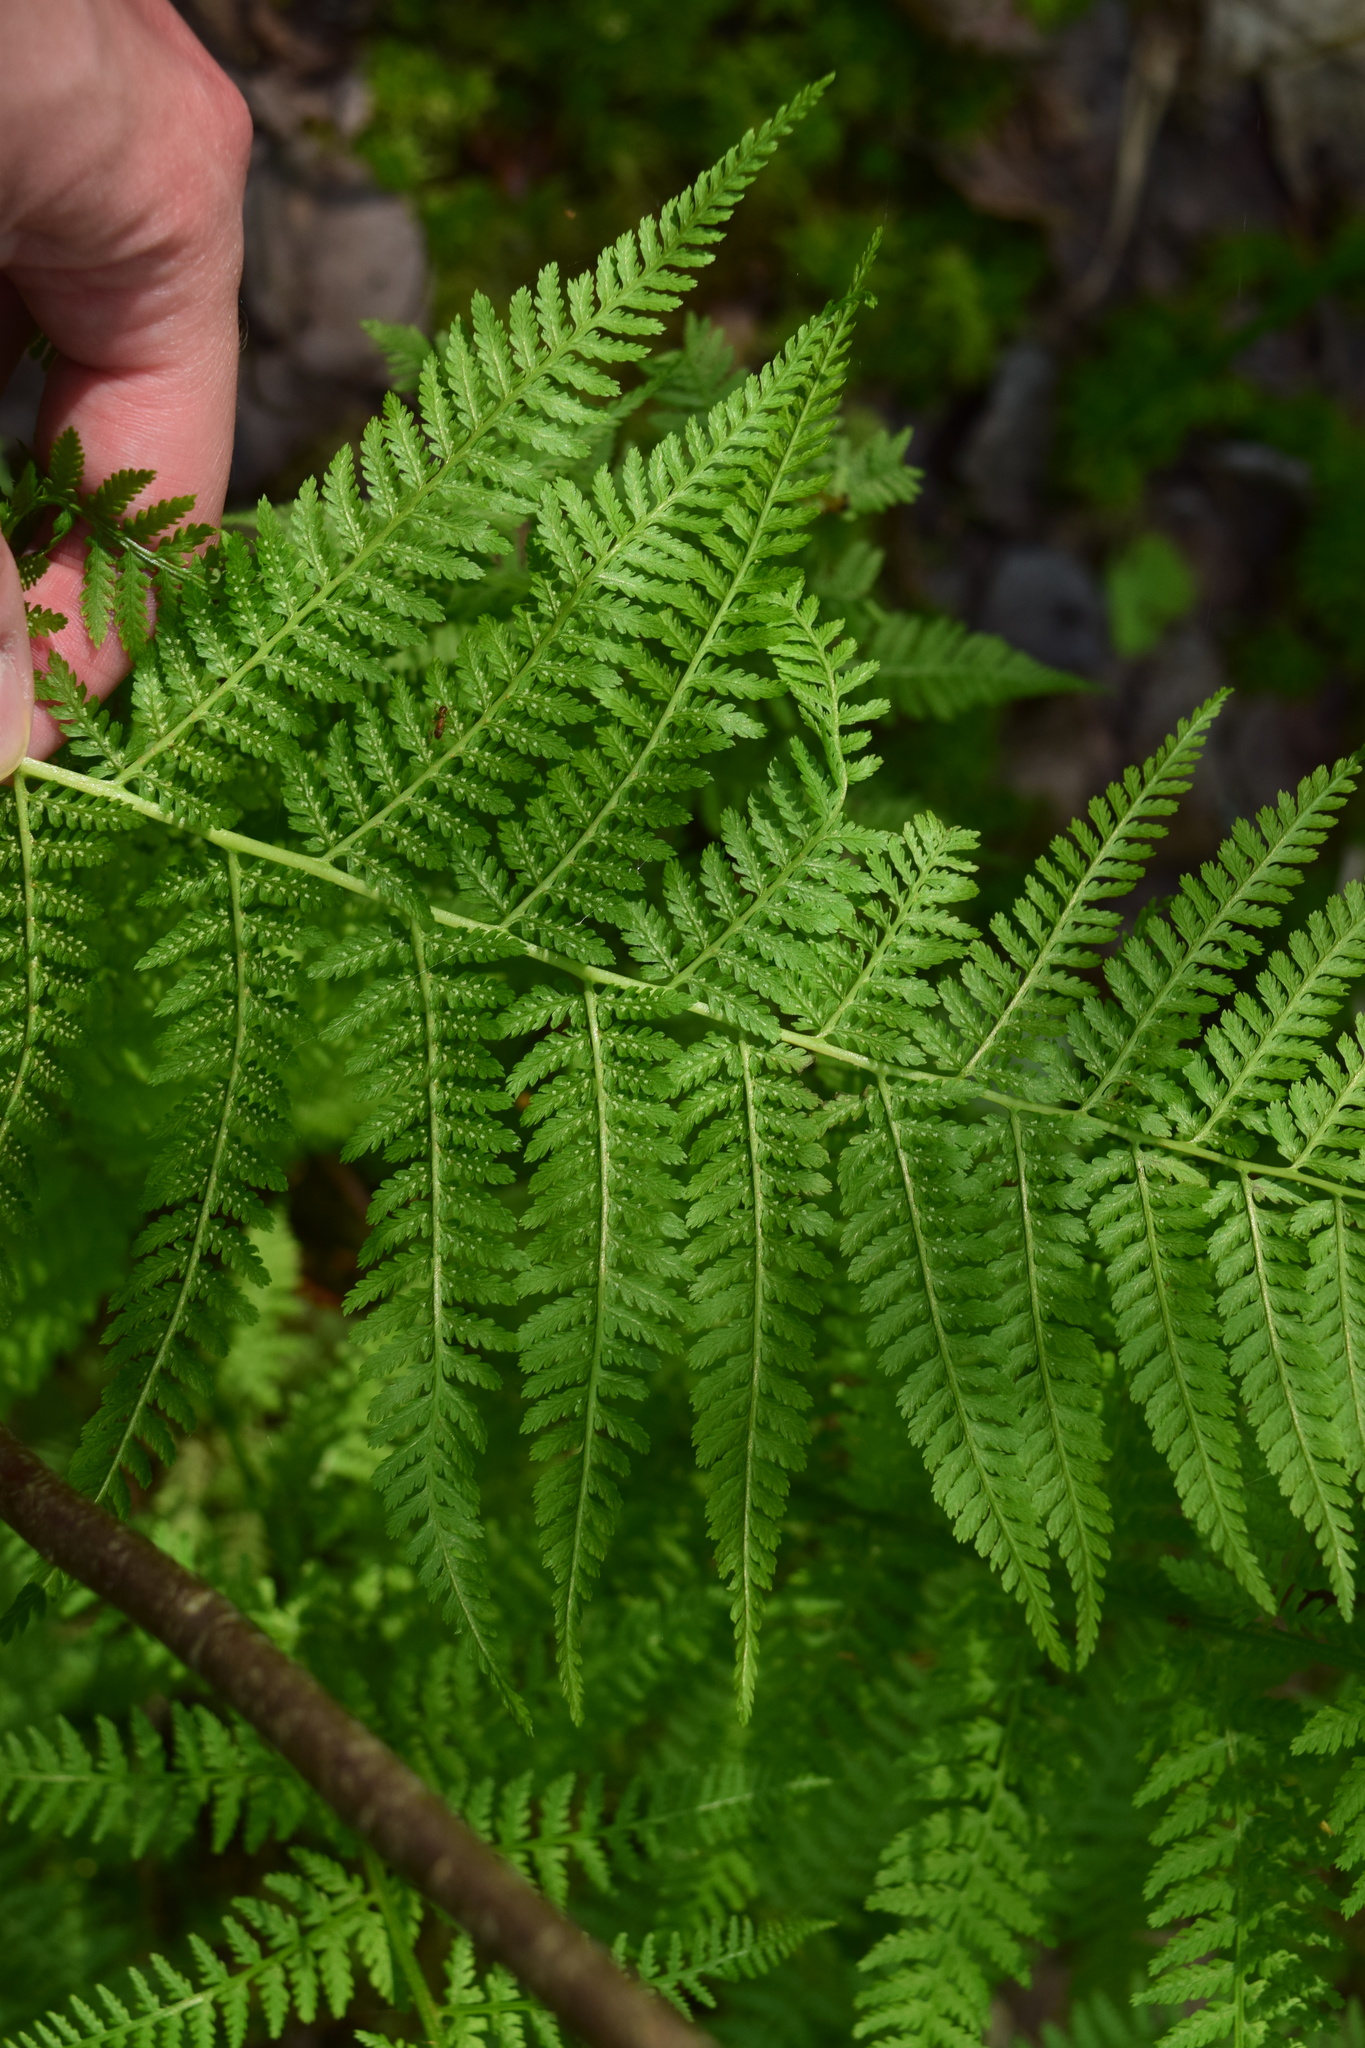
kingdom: Plantae
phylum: Tracheophyta
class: Polypodiopsida
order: Polypodiales
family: Athyriaceae
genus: Athyrium
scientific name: Athyrium filix-femina
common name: Lady fern
